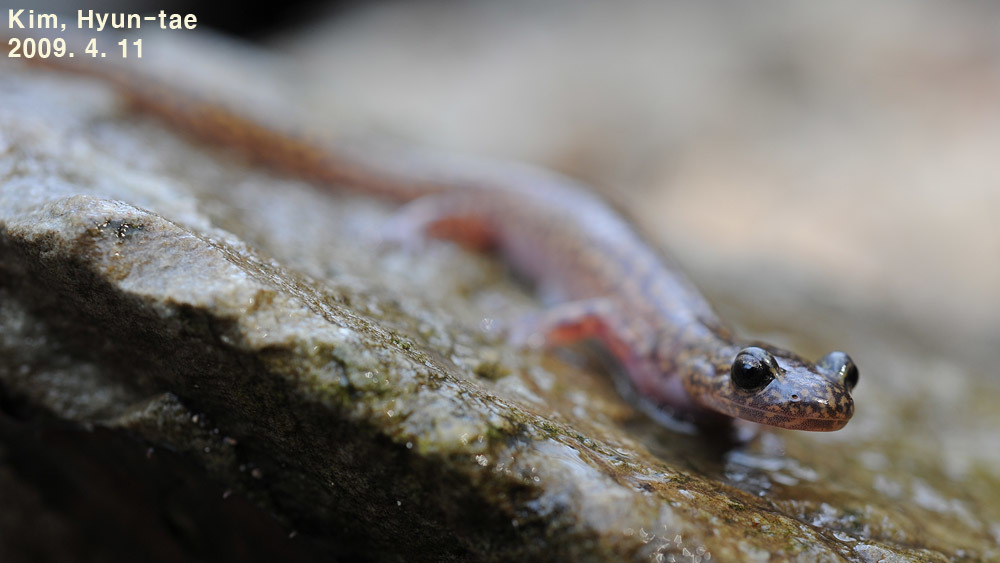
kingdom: Animalia
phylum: Chordata
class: Amphibia
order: Caudata
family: Hynobiidae
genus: Onychodactylus
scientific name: Onychodactylus koreanus
